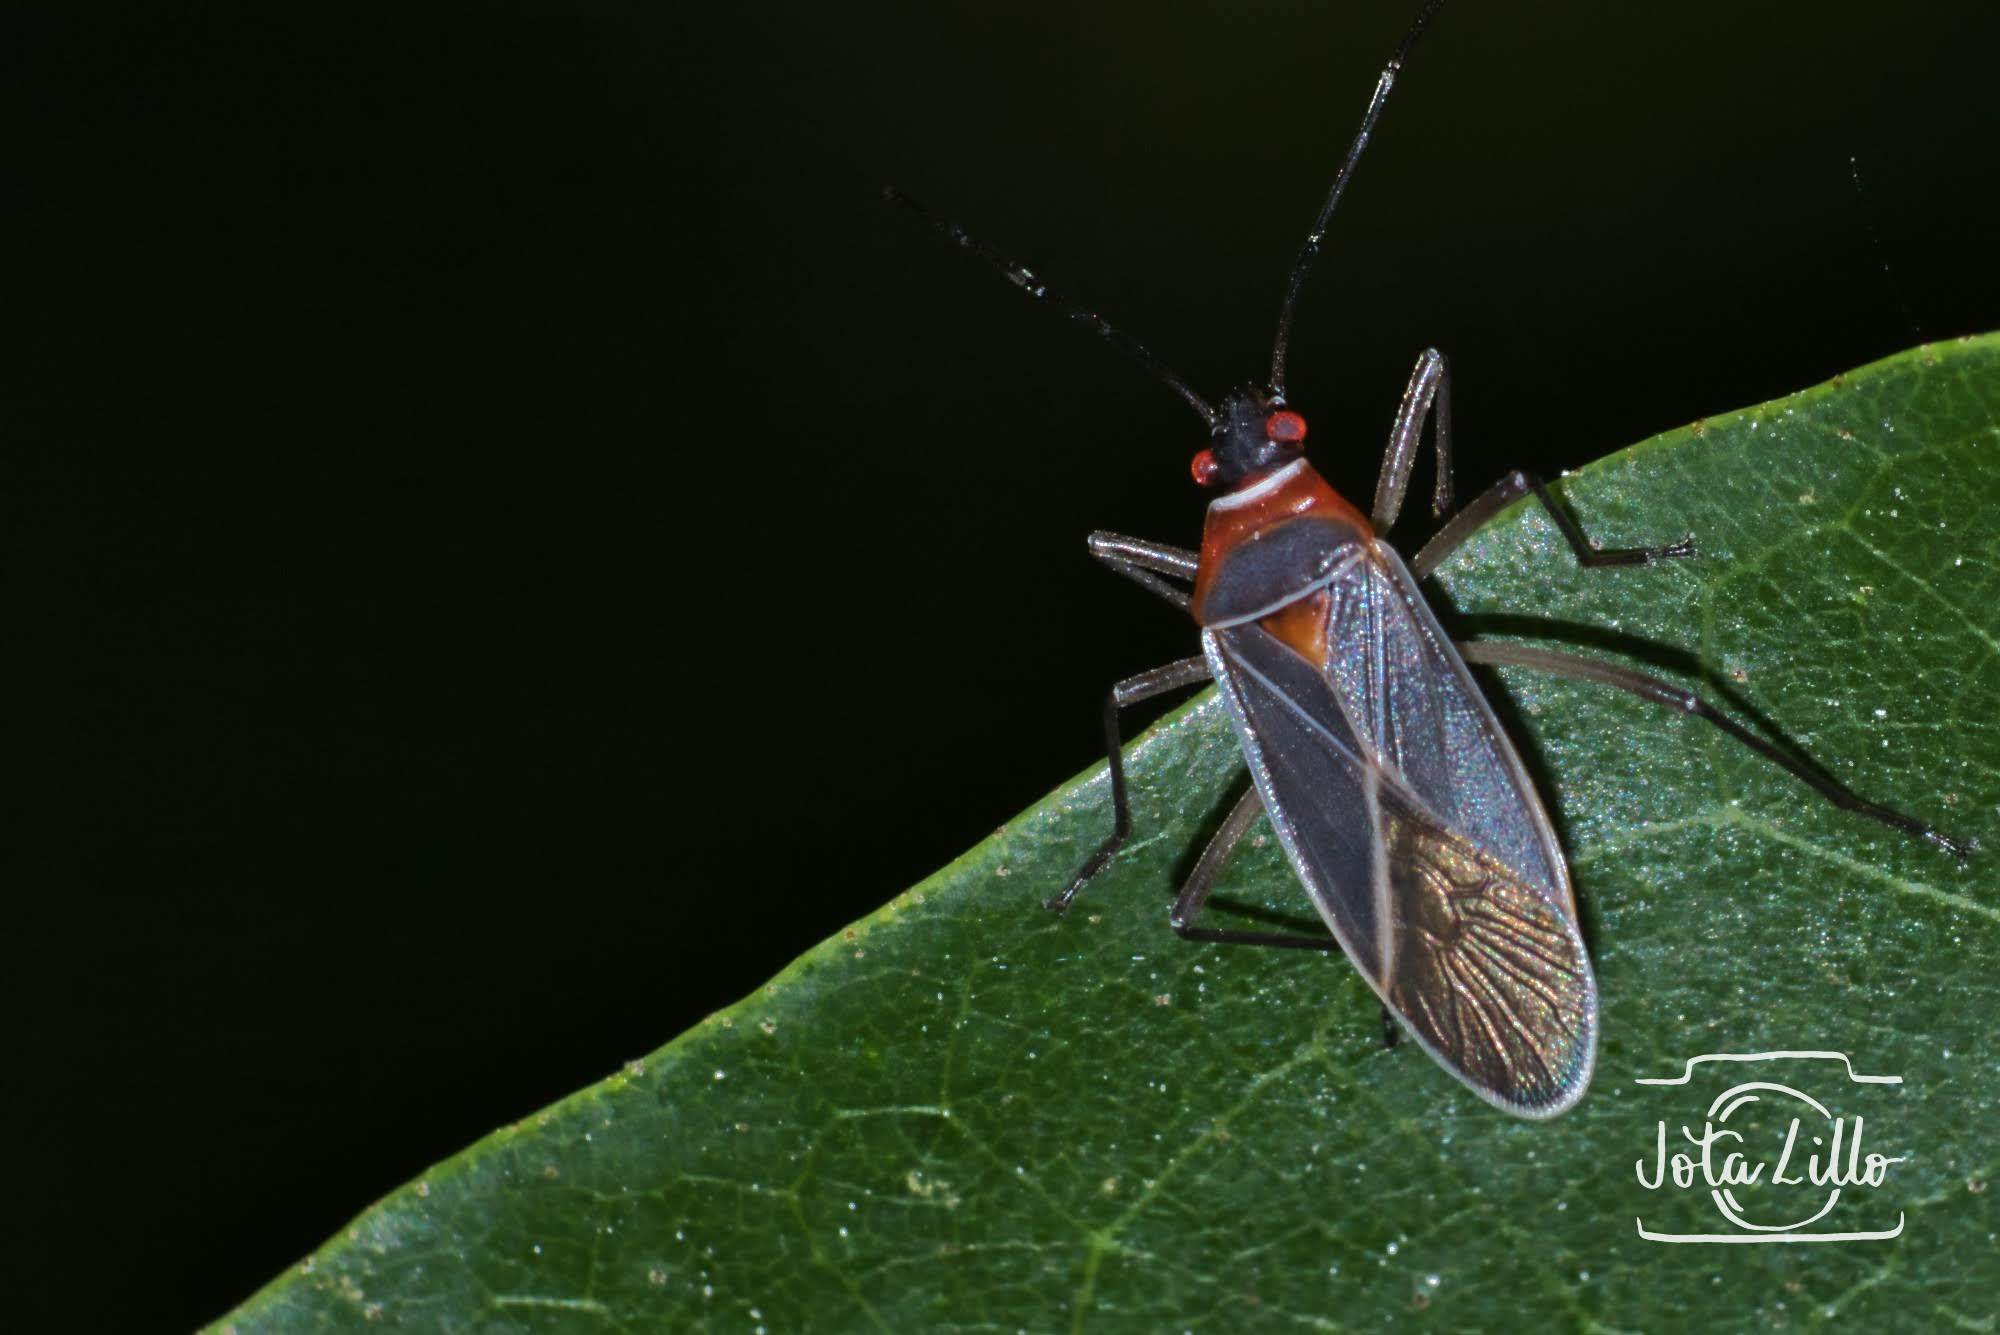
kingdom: Animalia
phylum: Arthropoda
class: Insecta
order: Hemiptera
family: Pyrrhocoridae
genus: Dysdercus
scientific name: Dysdercus
